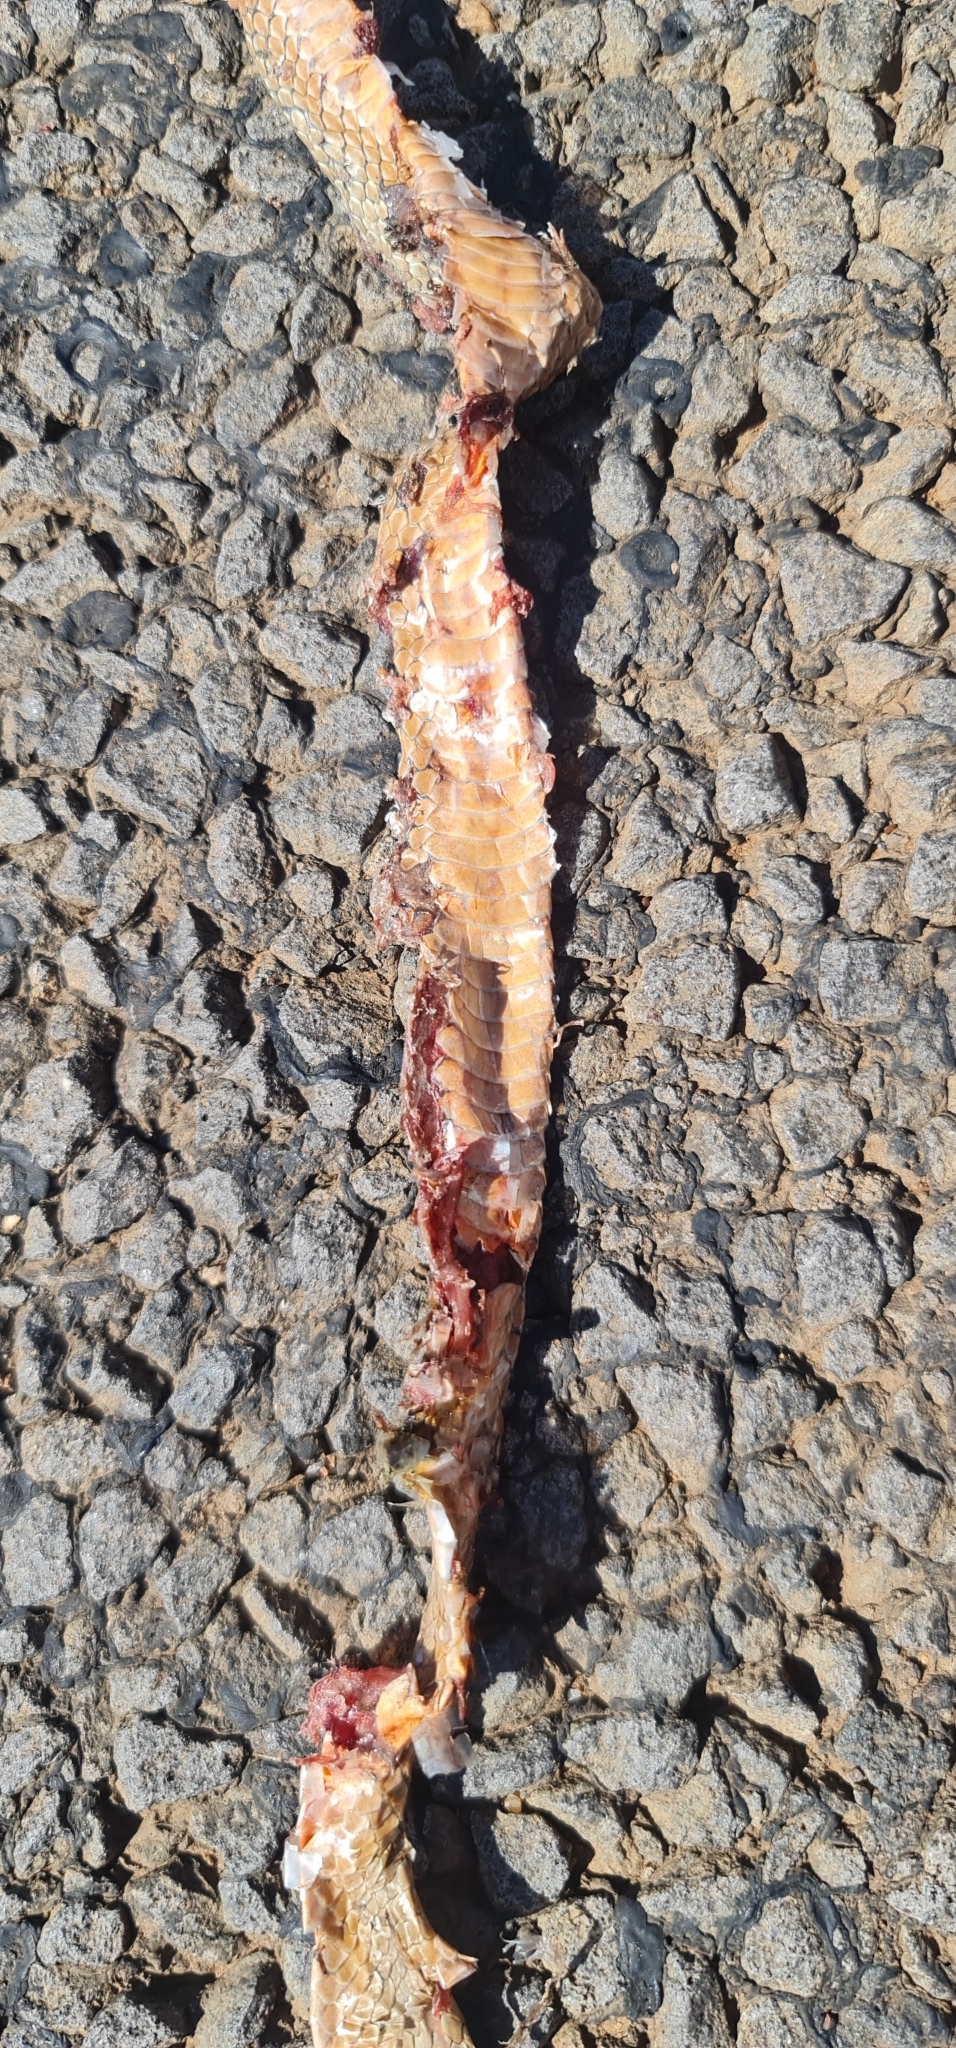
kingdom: Animalia
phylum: Chordata
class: Squamata
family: Elapidae
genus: Demansia
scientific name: Demansia rimicola
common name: Soil-crack whipsnake
